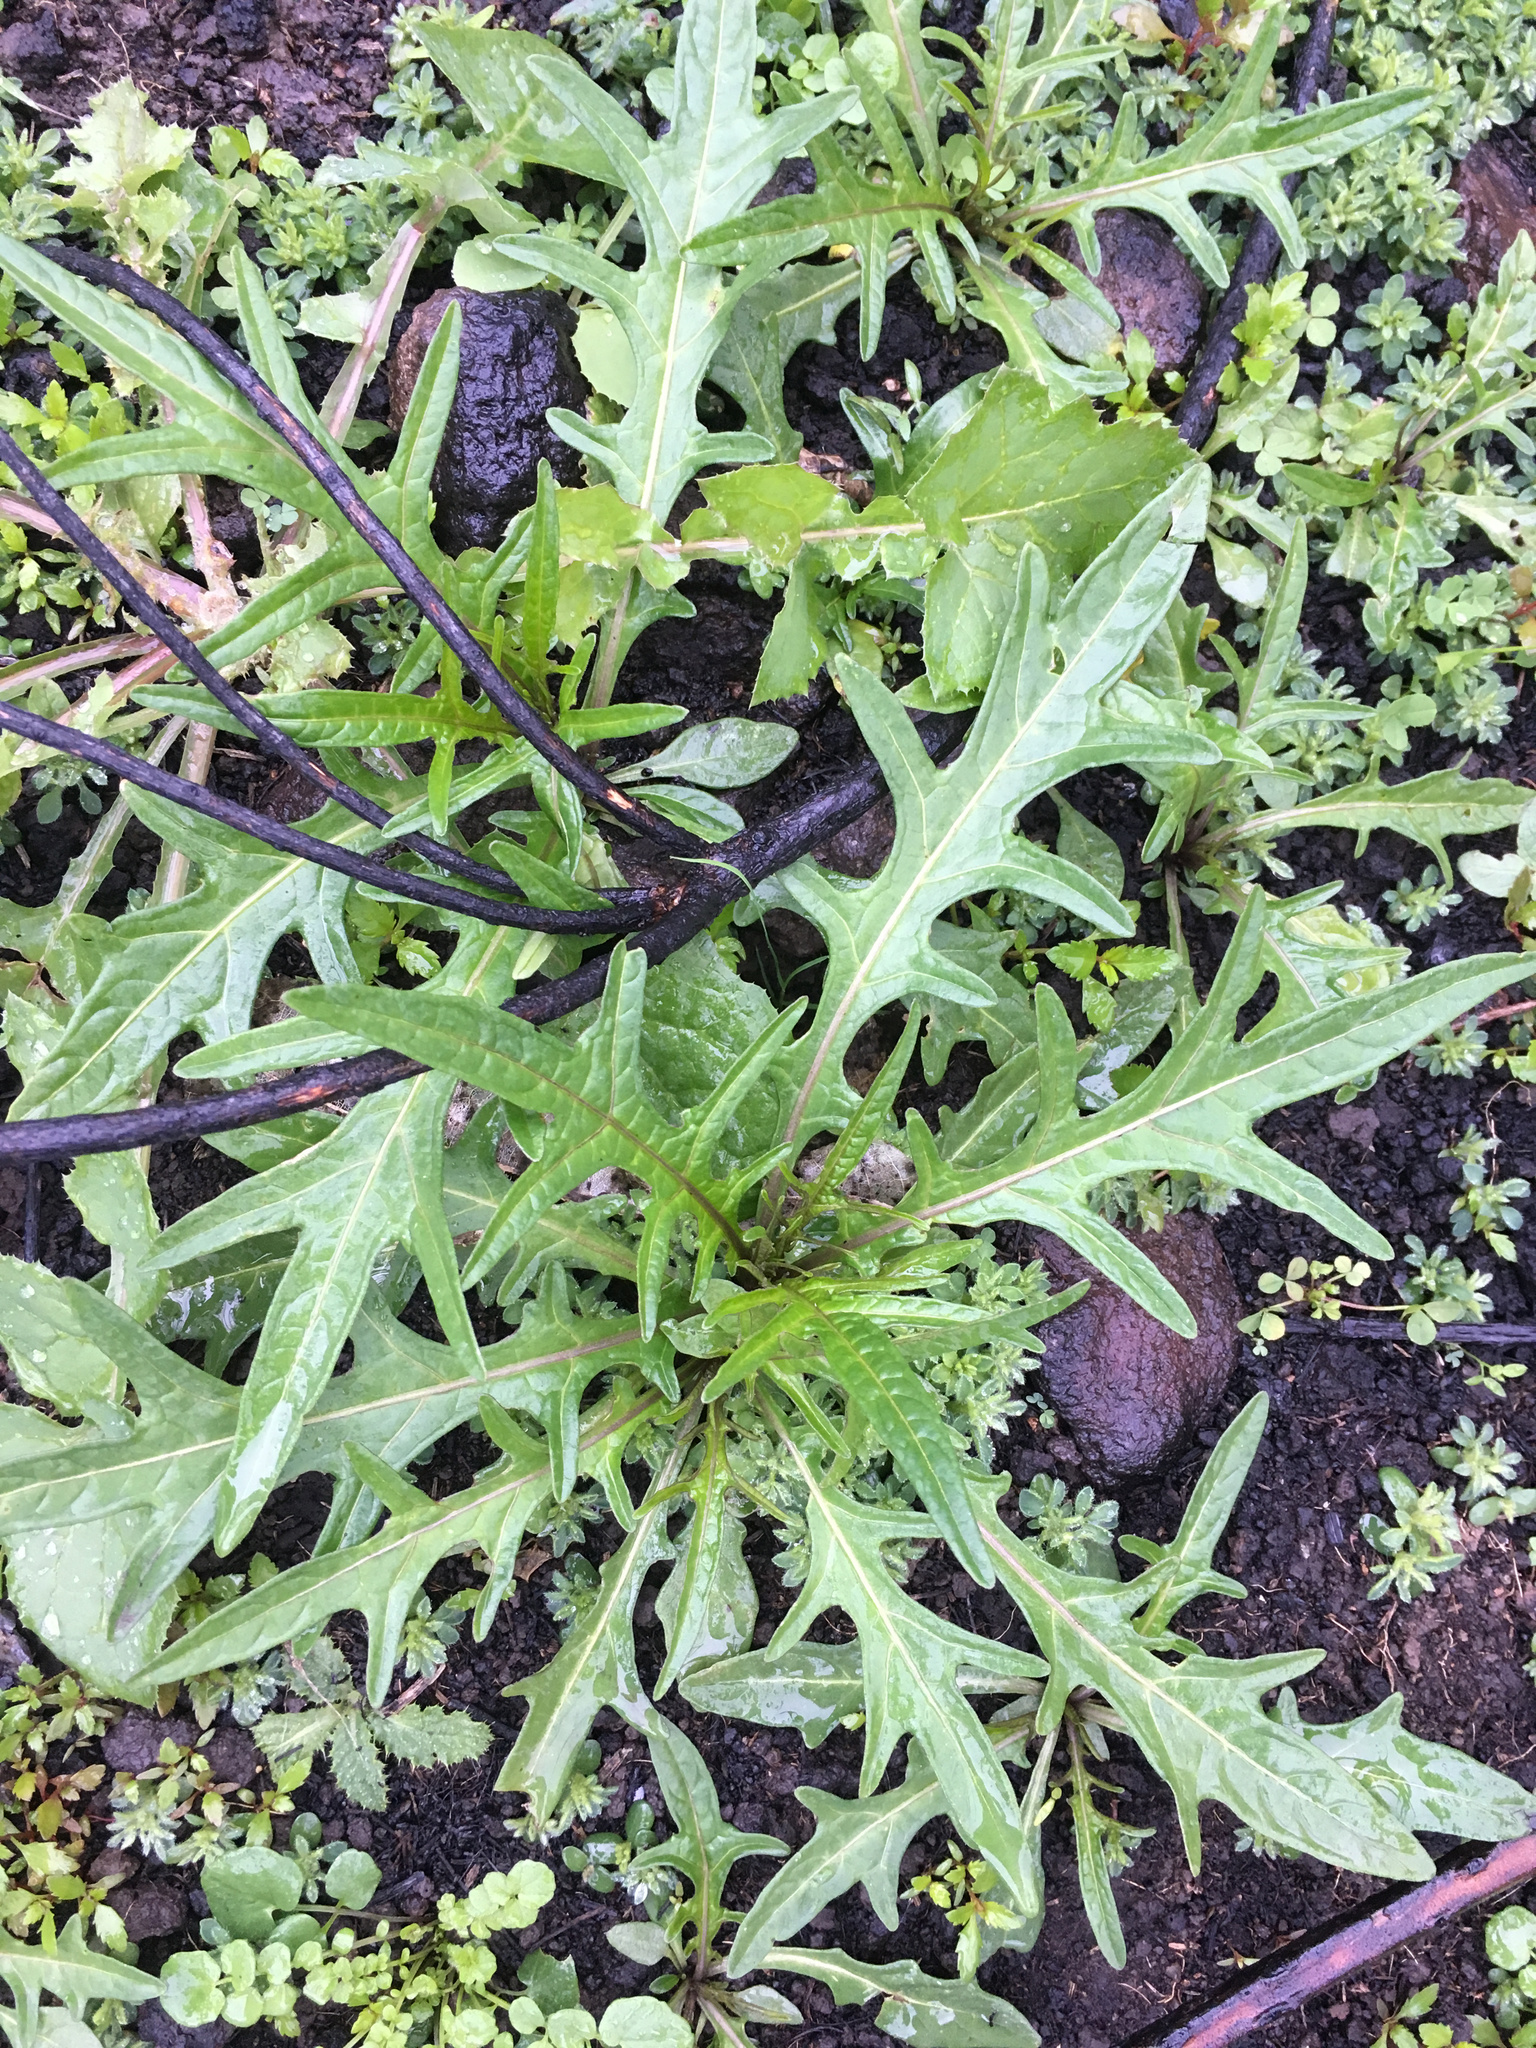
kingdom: Plantae
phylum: Tracheophyta
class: Magnoliopsida
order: Solanales
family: Solanaceae
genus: Solanum
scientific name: Solanum
